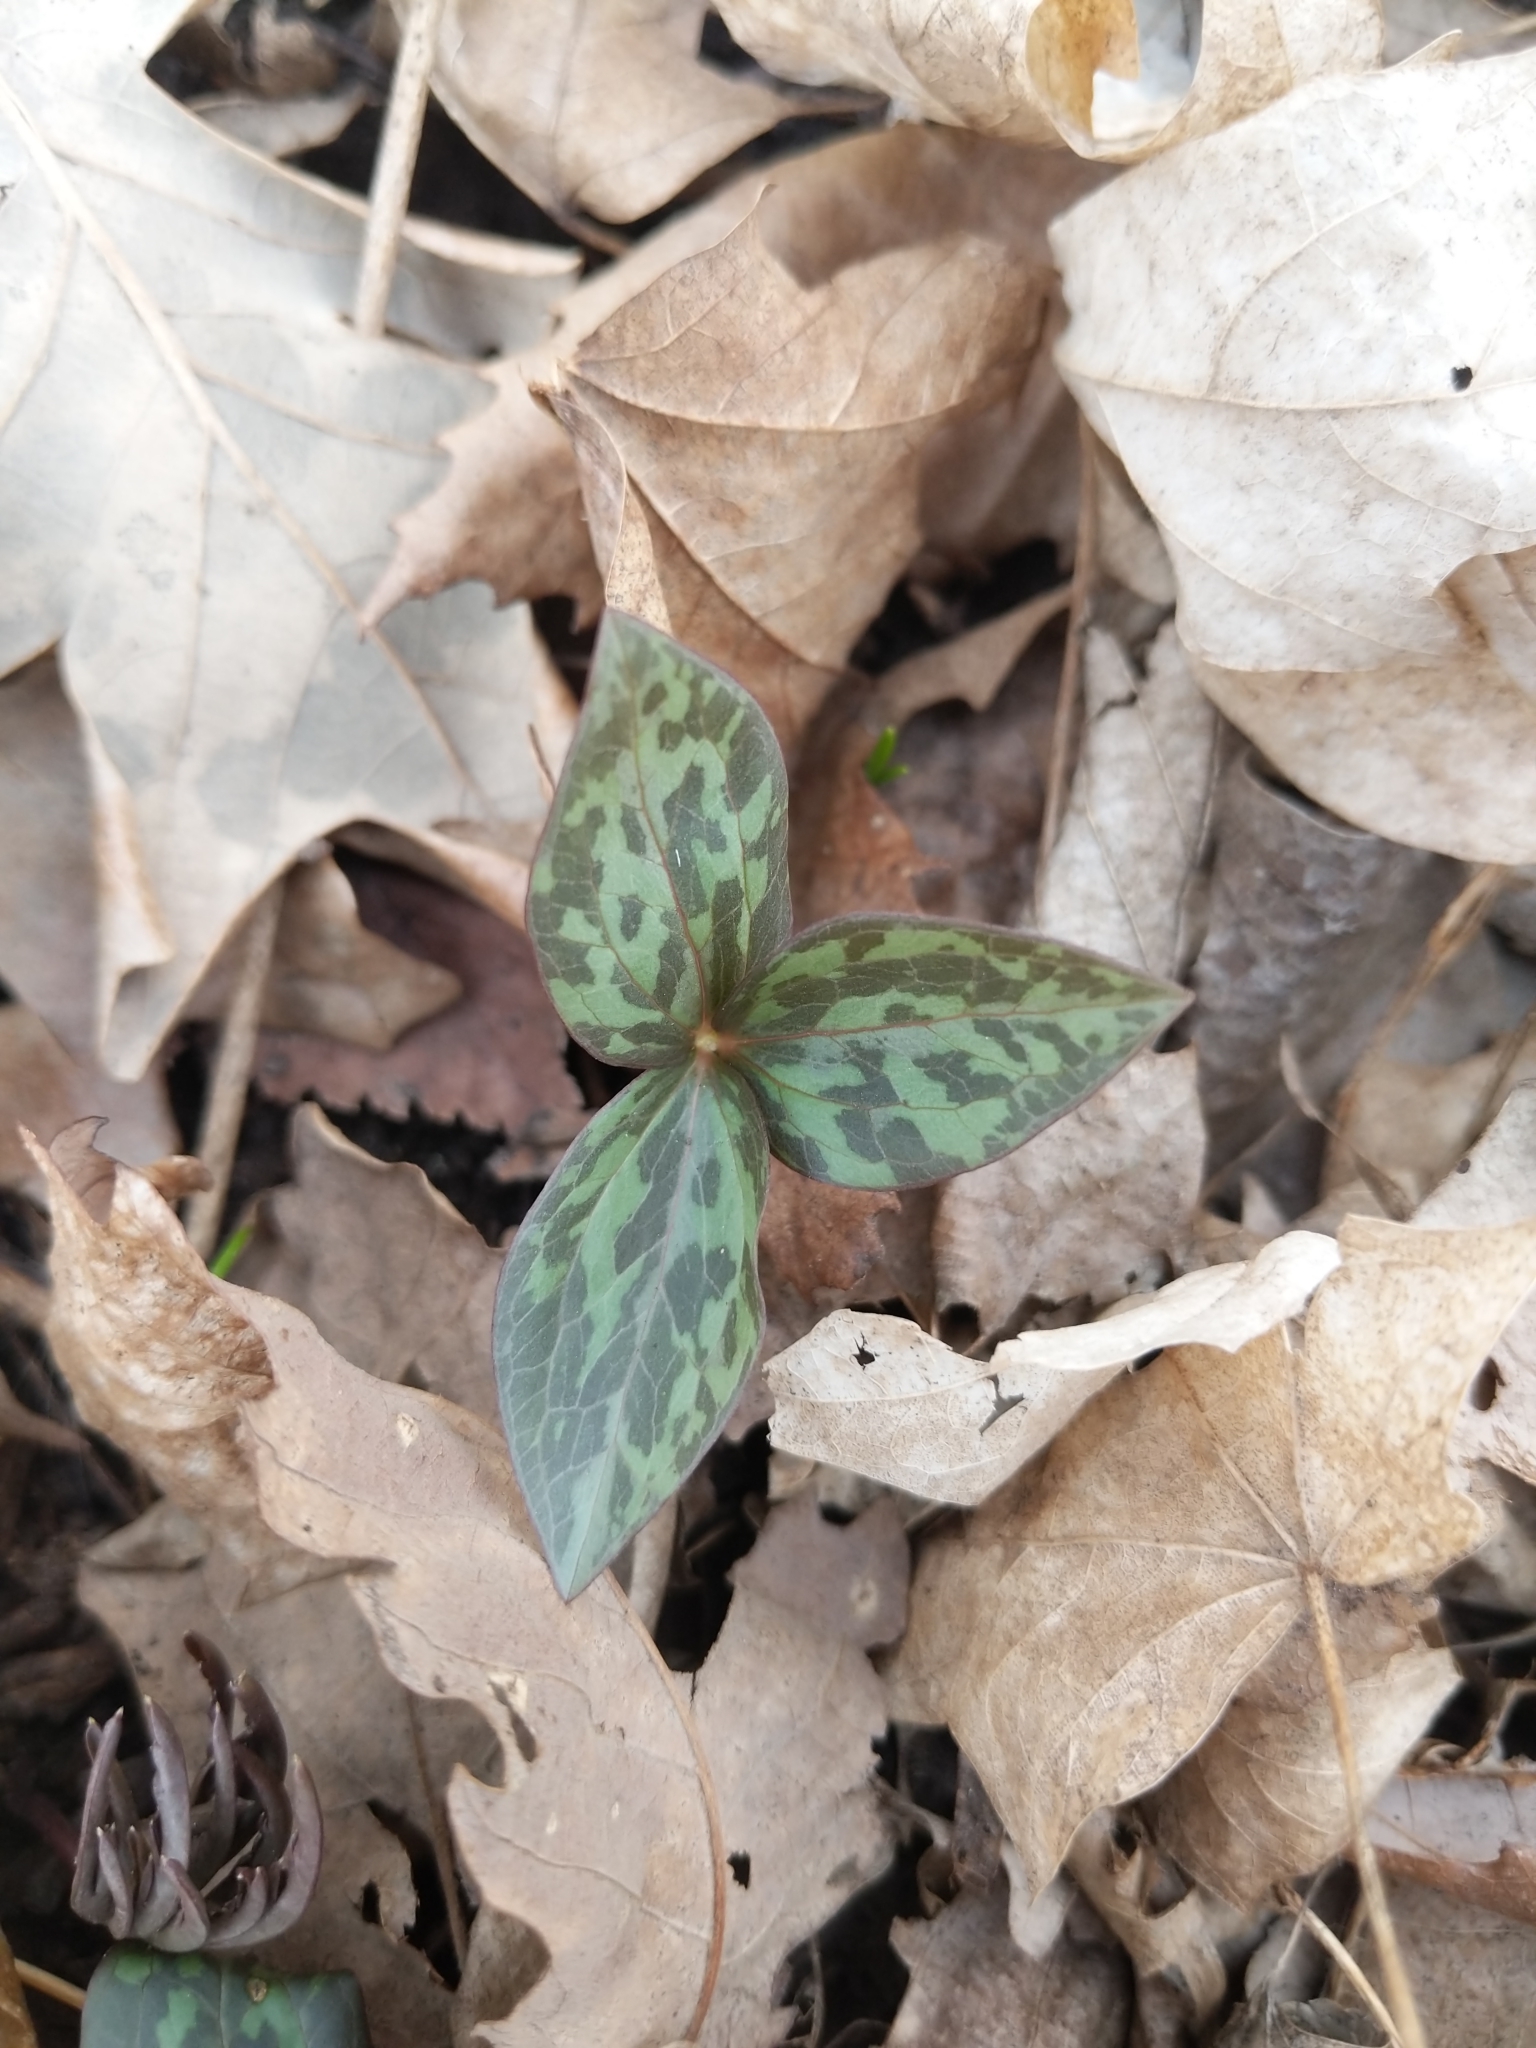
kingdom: Plantae
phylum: Tracheophyta
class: Liliopsida
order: Liliales
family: Melanthiaceae
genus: Trillium
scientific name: Trillium recurvatum
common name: Bloody butcher
